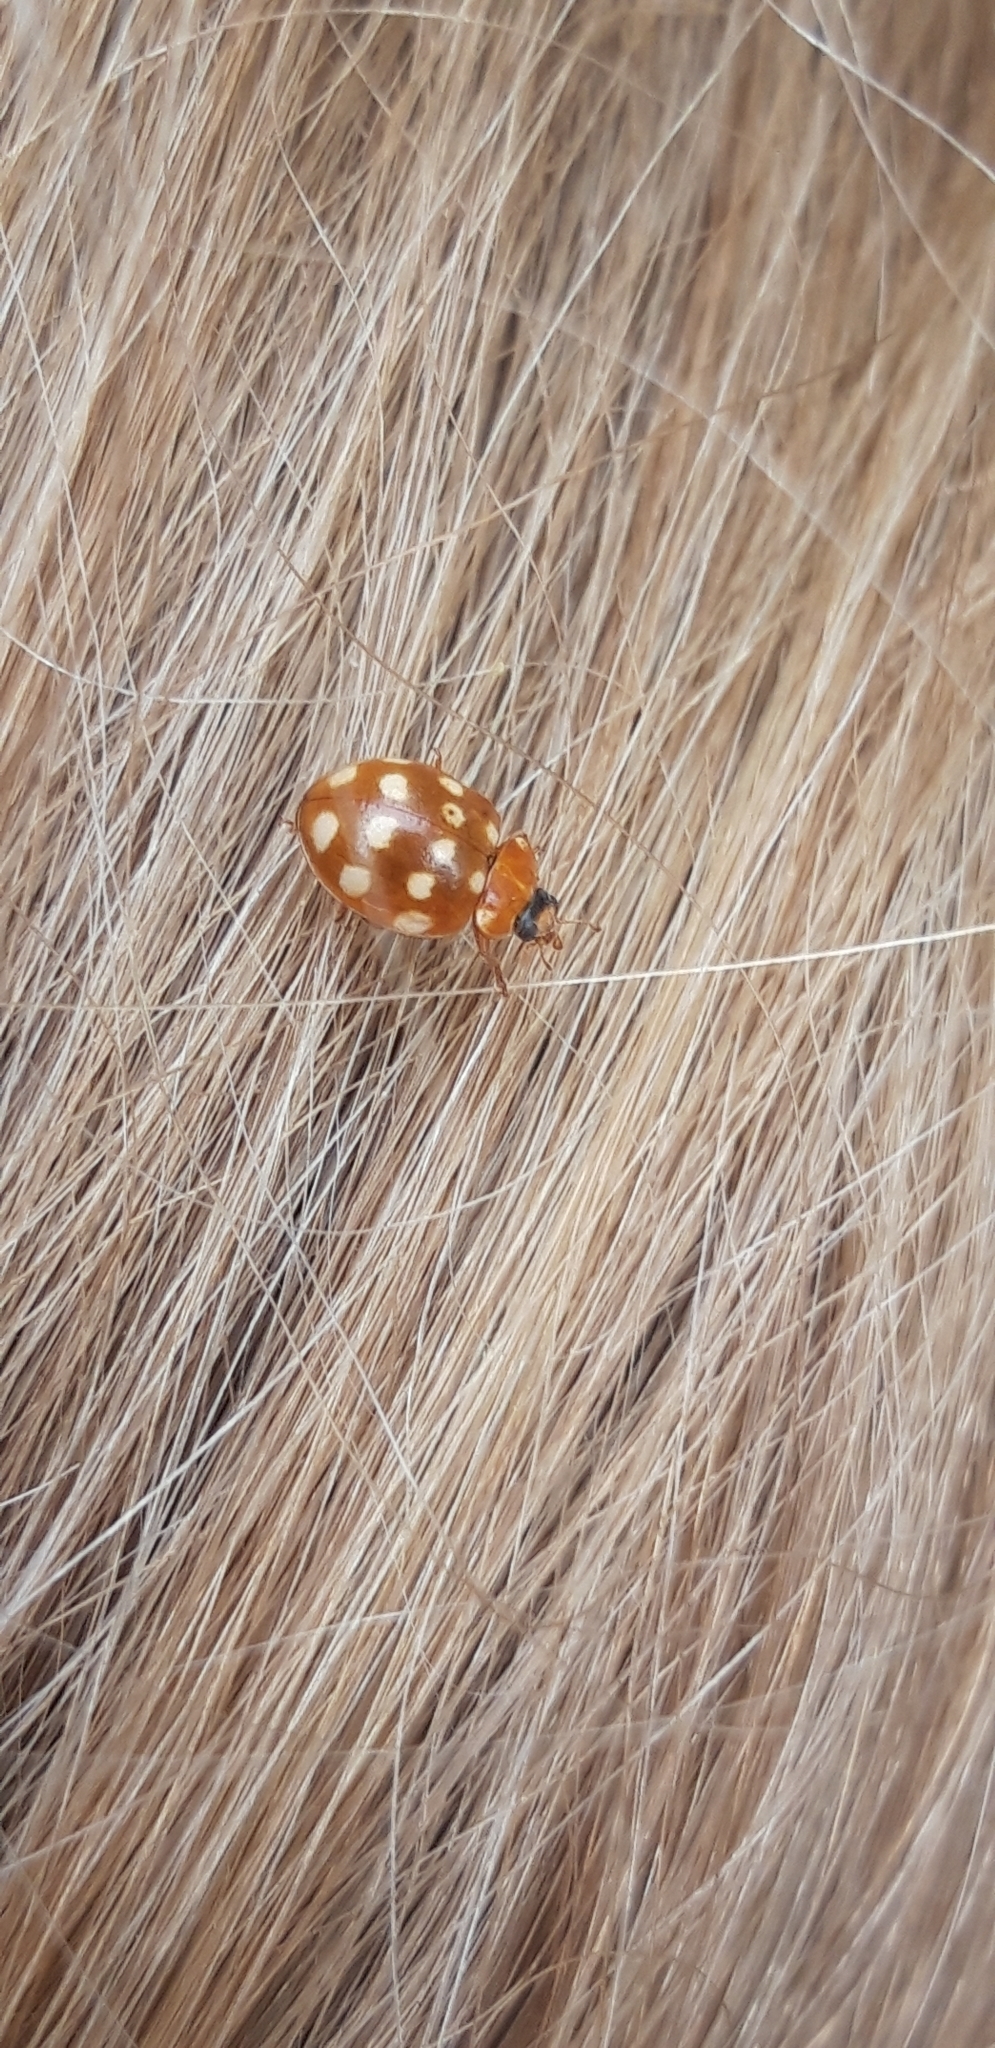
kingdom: Animalia
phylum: Arthropoda
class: Insecta
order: Coleoptera
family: Coccinellidae
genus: Calvia
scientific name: Calvia quatuordecimguttata
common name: Cream-spot ladybird
